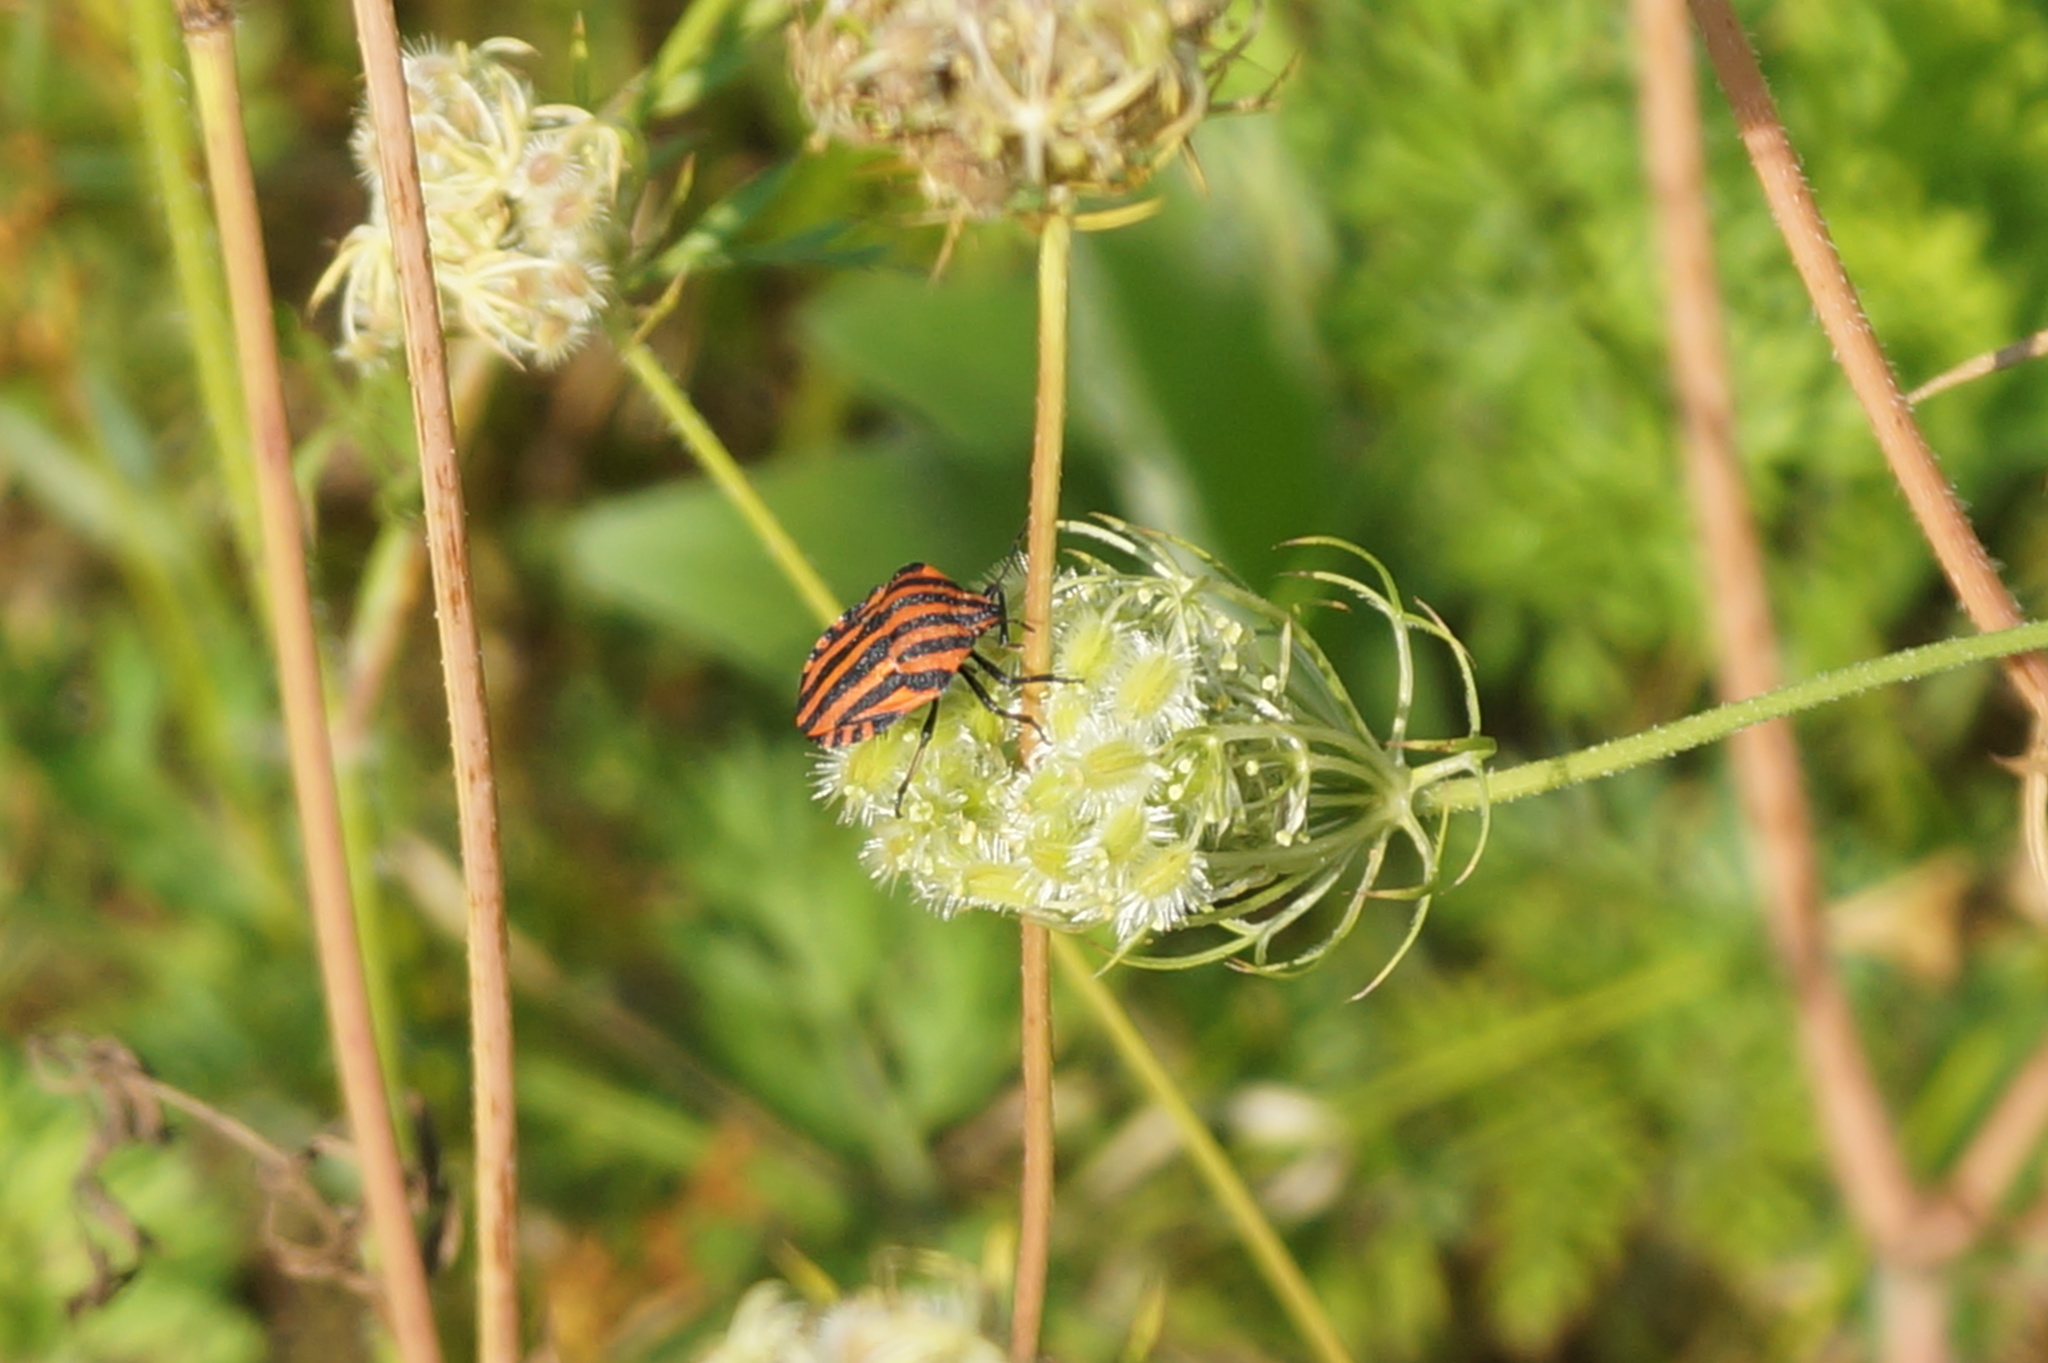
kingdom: Animalia
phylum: Arthropoda
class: Insecta
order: Hemiptera
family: Pentatomidae
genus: Graphosoma
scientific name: Graphosoma italicum
